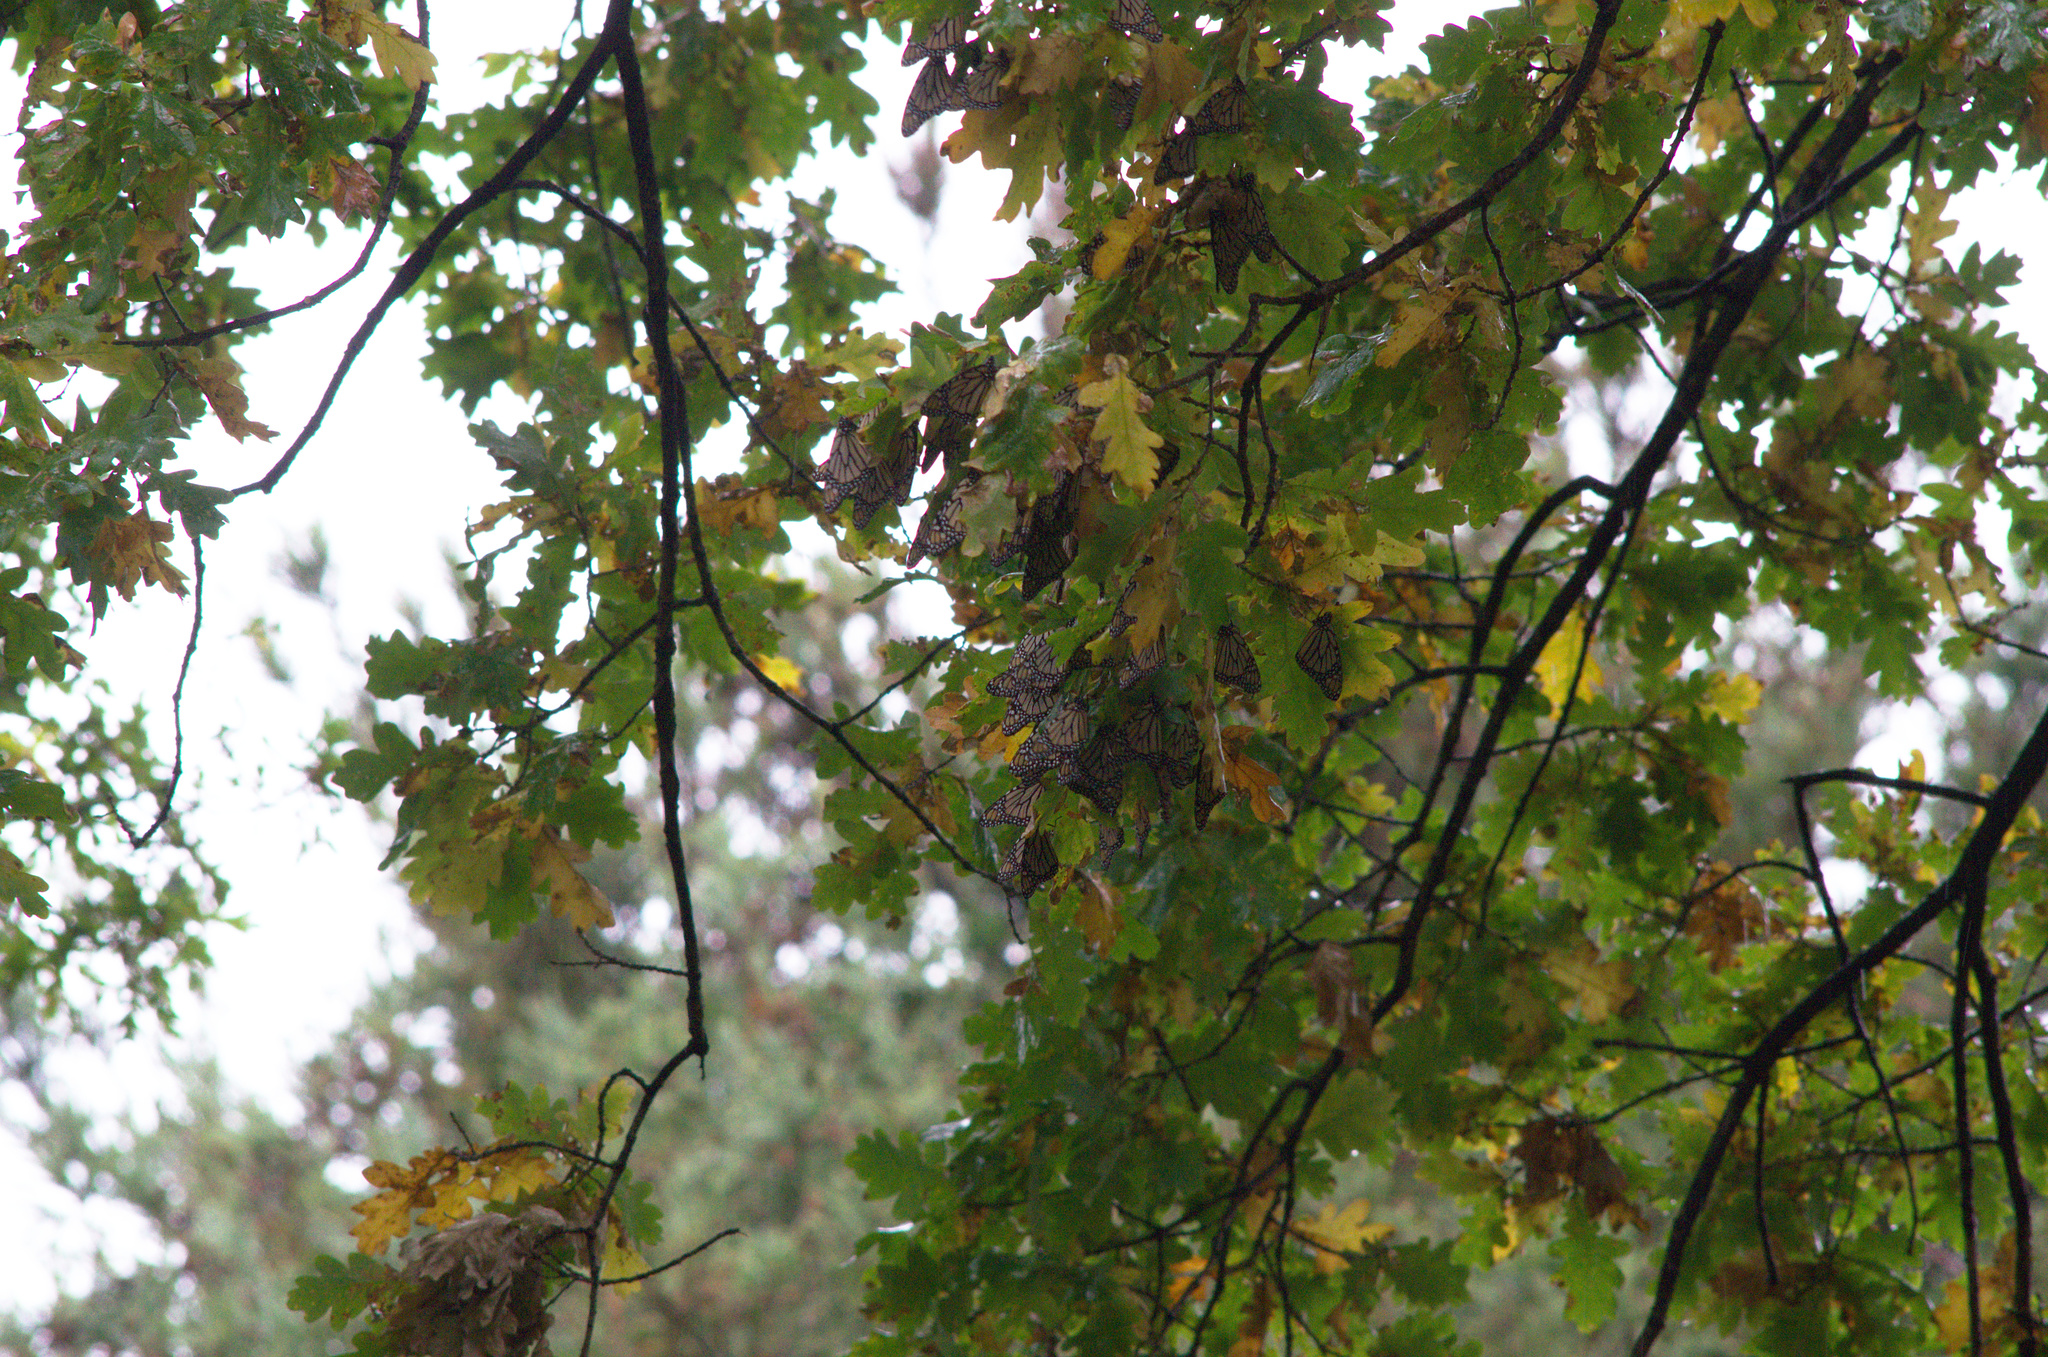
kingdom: Animalia
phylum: Arthropoda
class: Insecta
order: Lepidoptera
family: Nymphalidae
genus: Danaus
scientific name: Danaus plexippus
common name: Monarch
